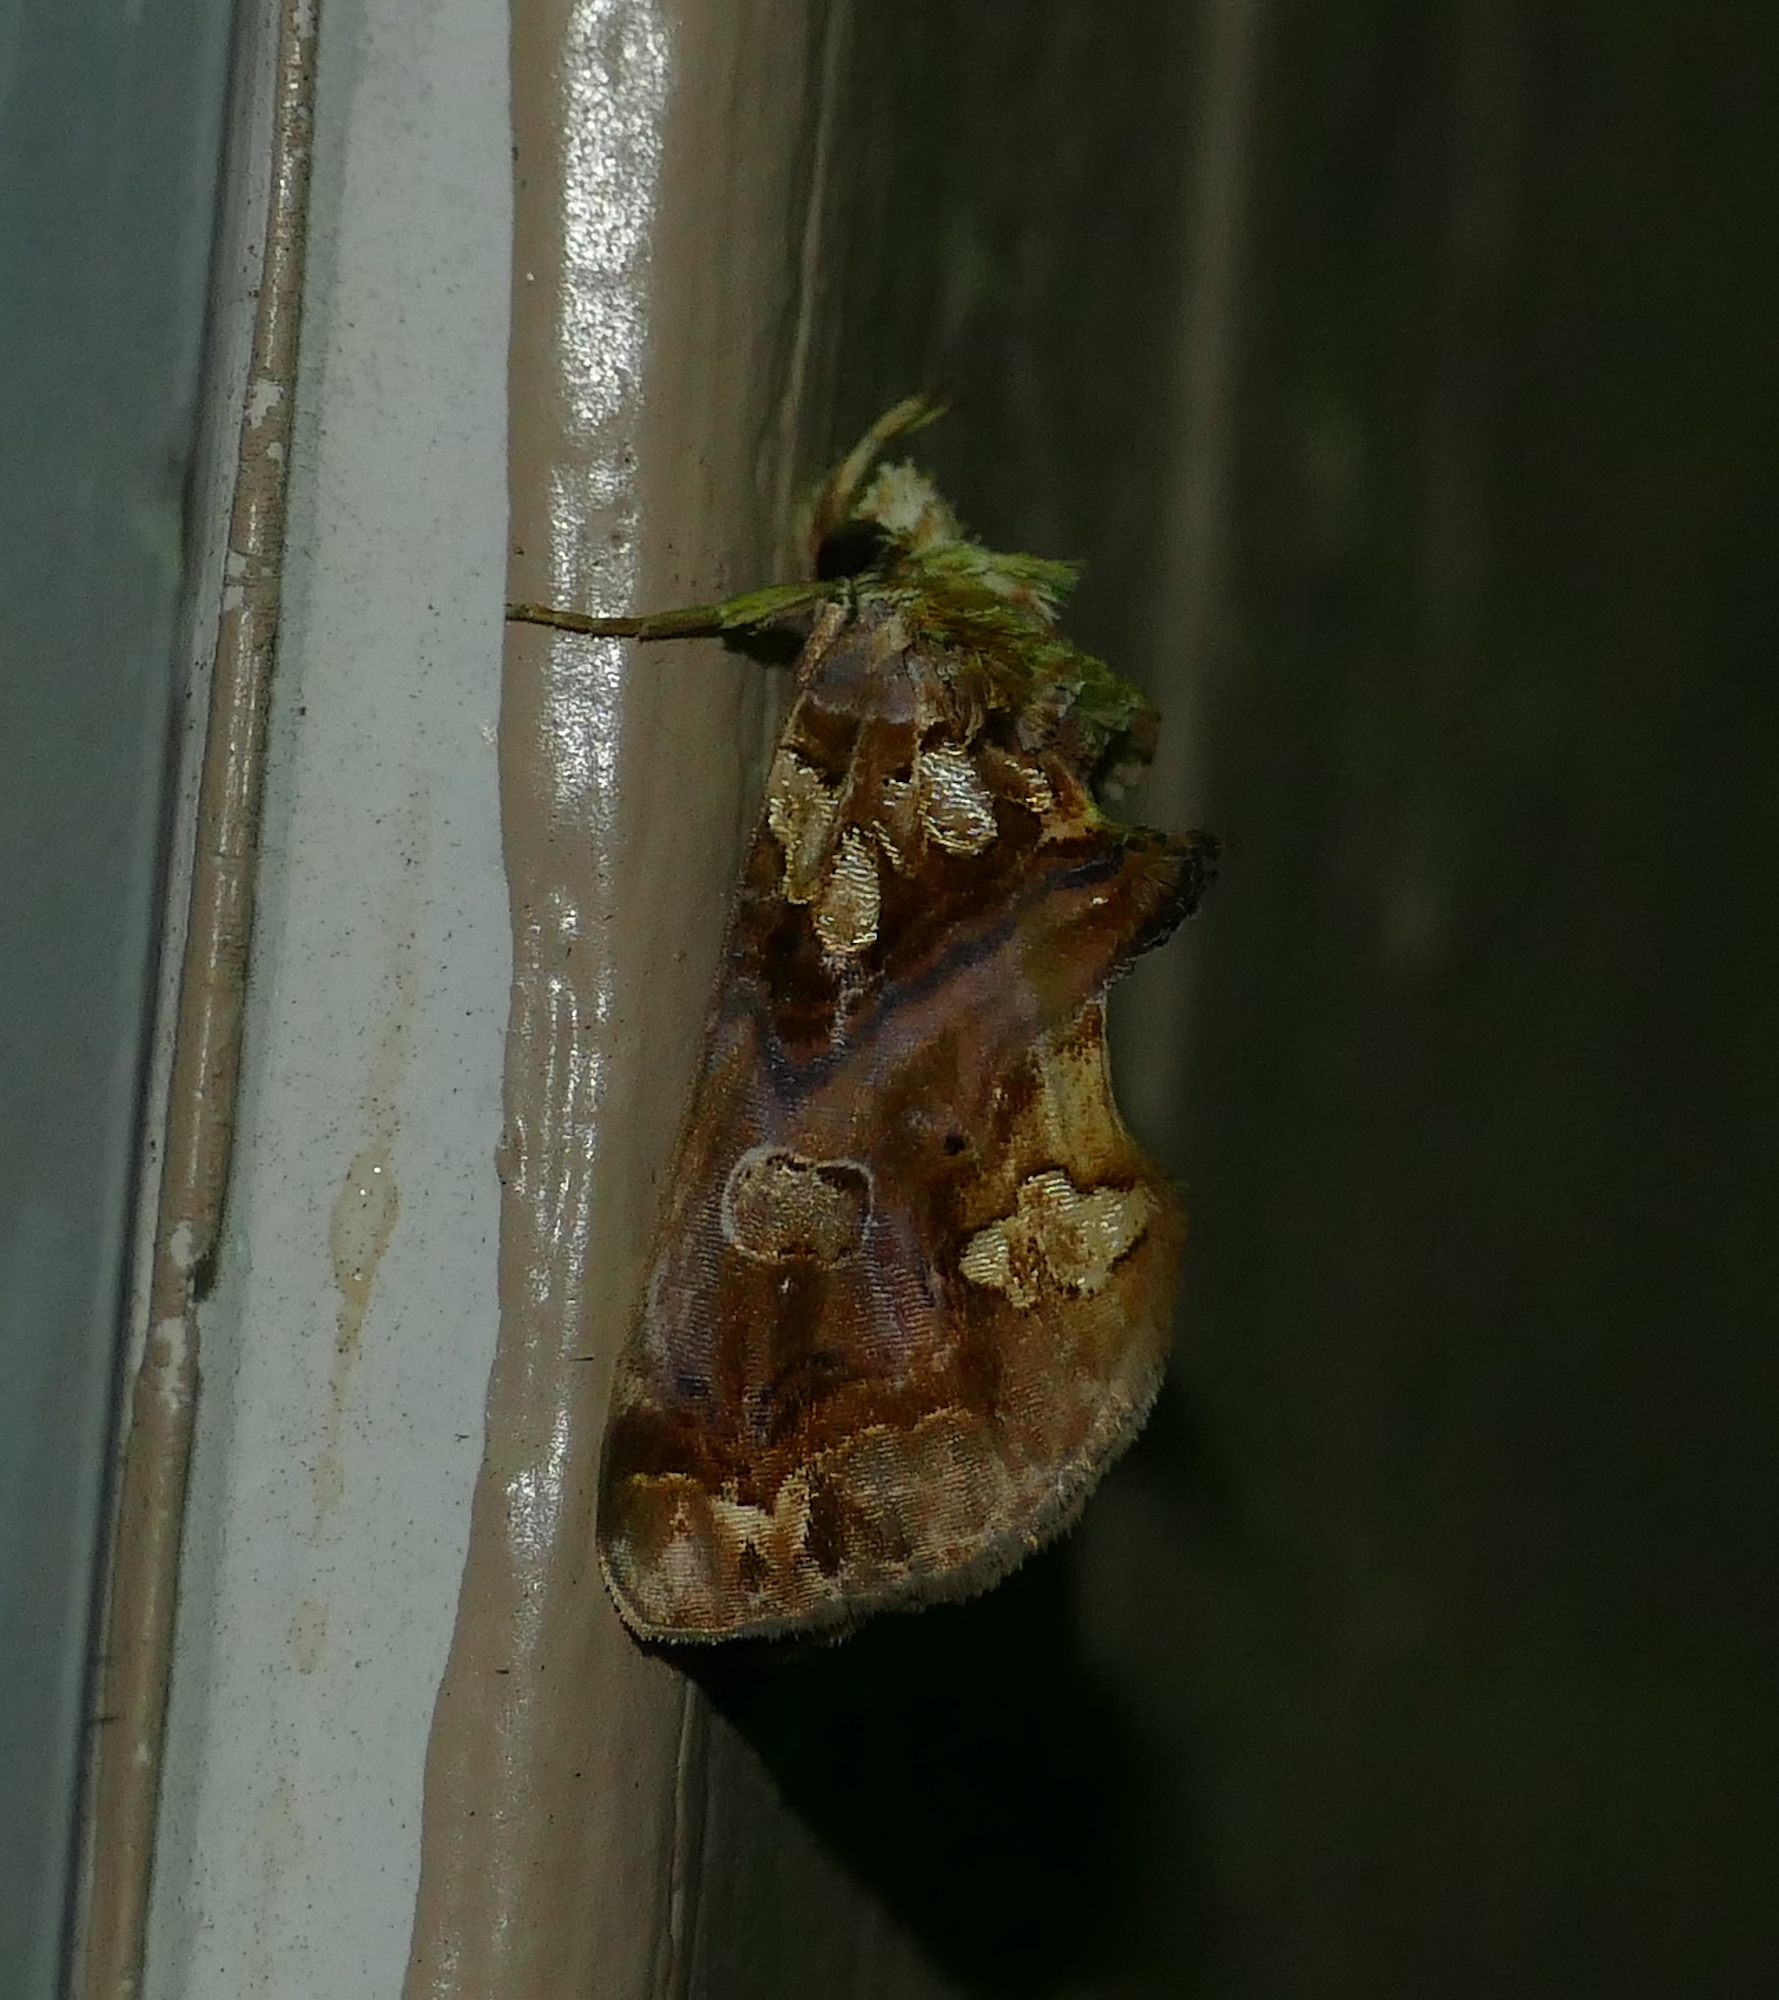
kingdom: Animalia
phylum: Arthropoda
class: Insecta
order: Lepidoptera
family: Erebidae
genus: Plusiodonta
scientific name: Plusiodonta compressipalpis
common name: Moonseed moth
